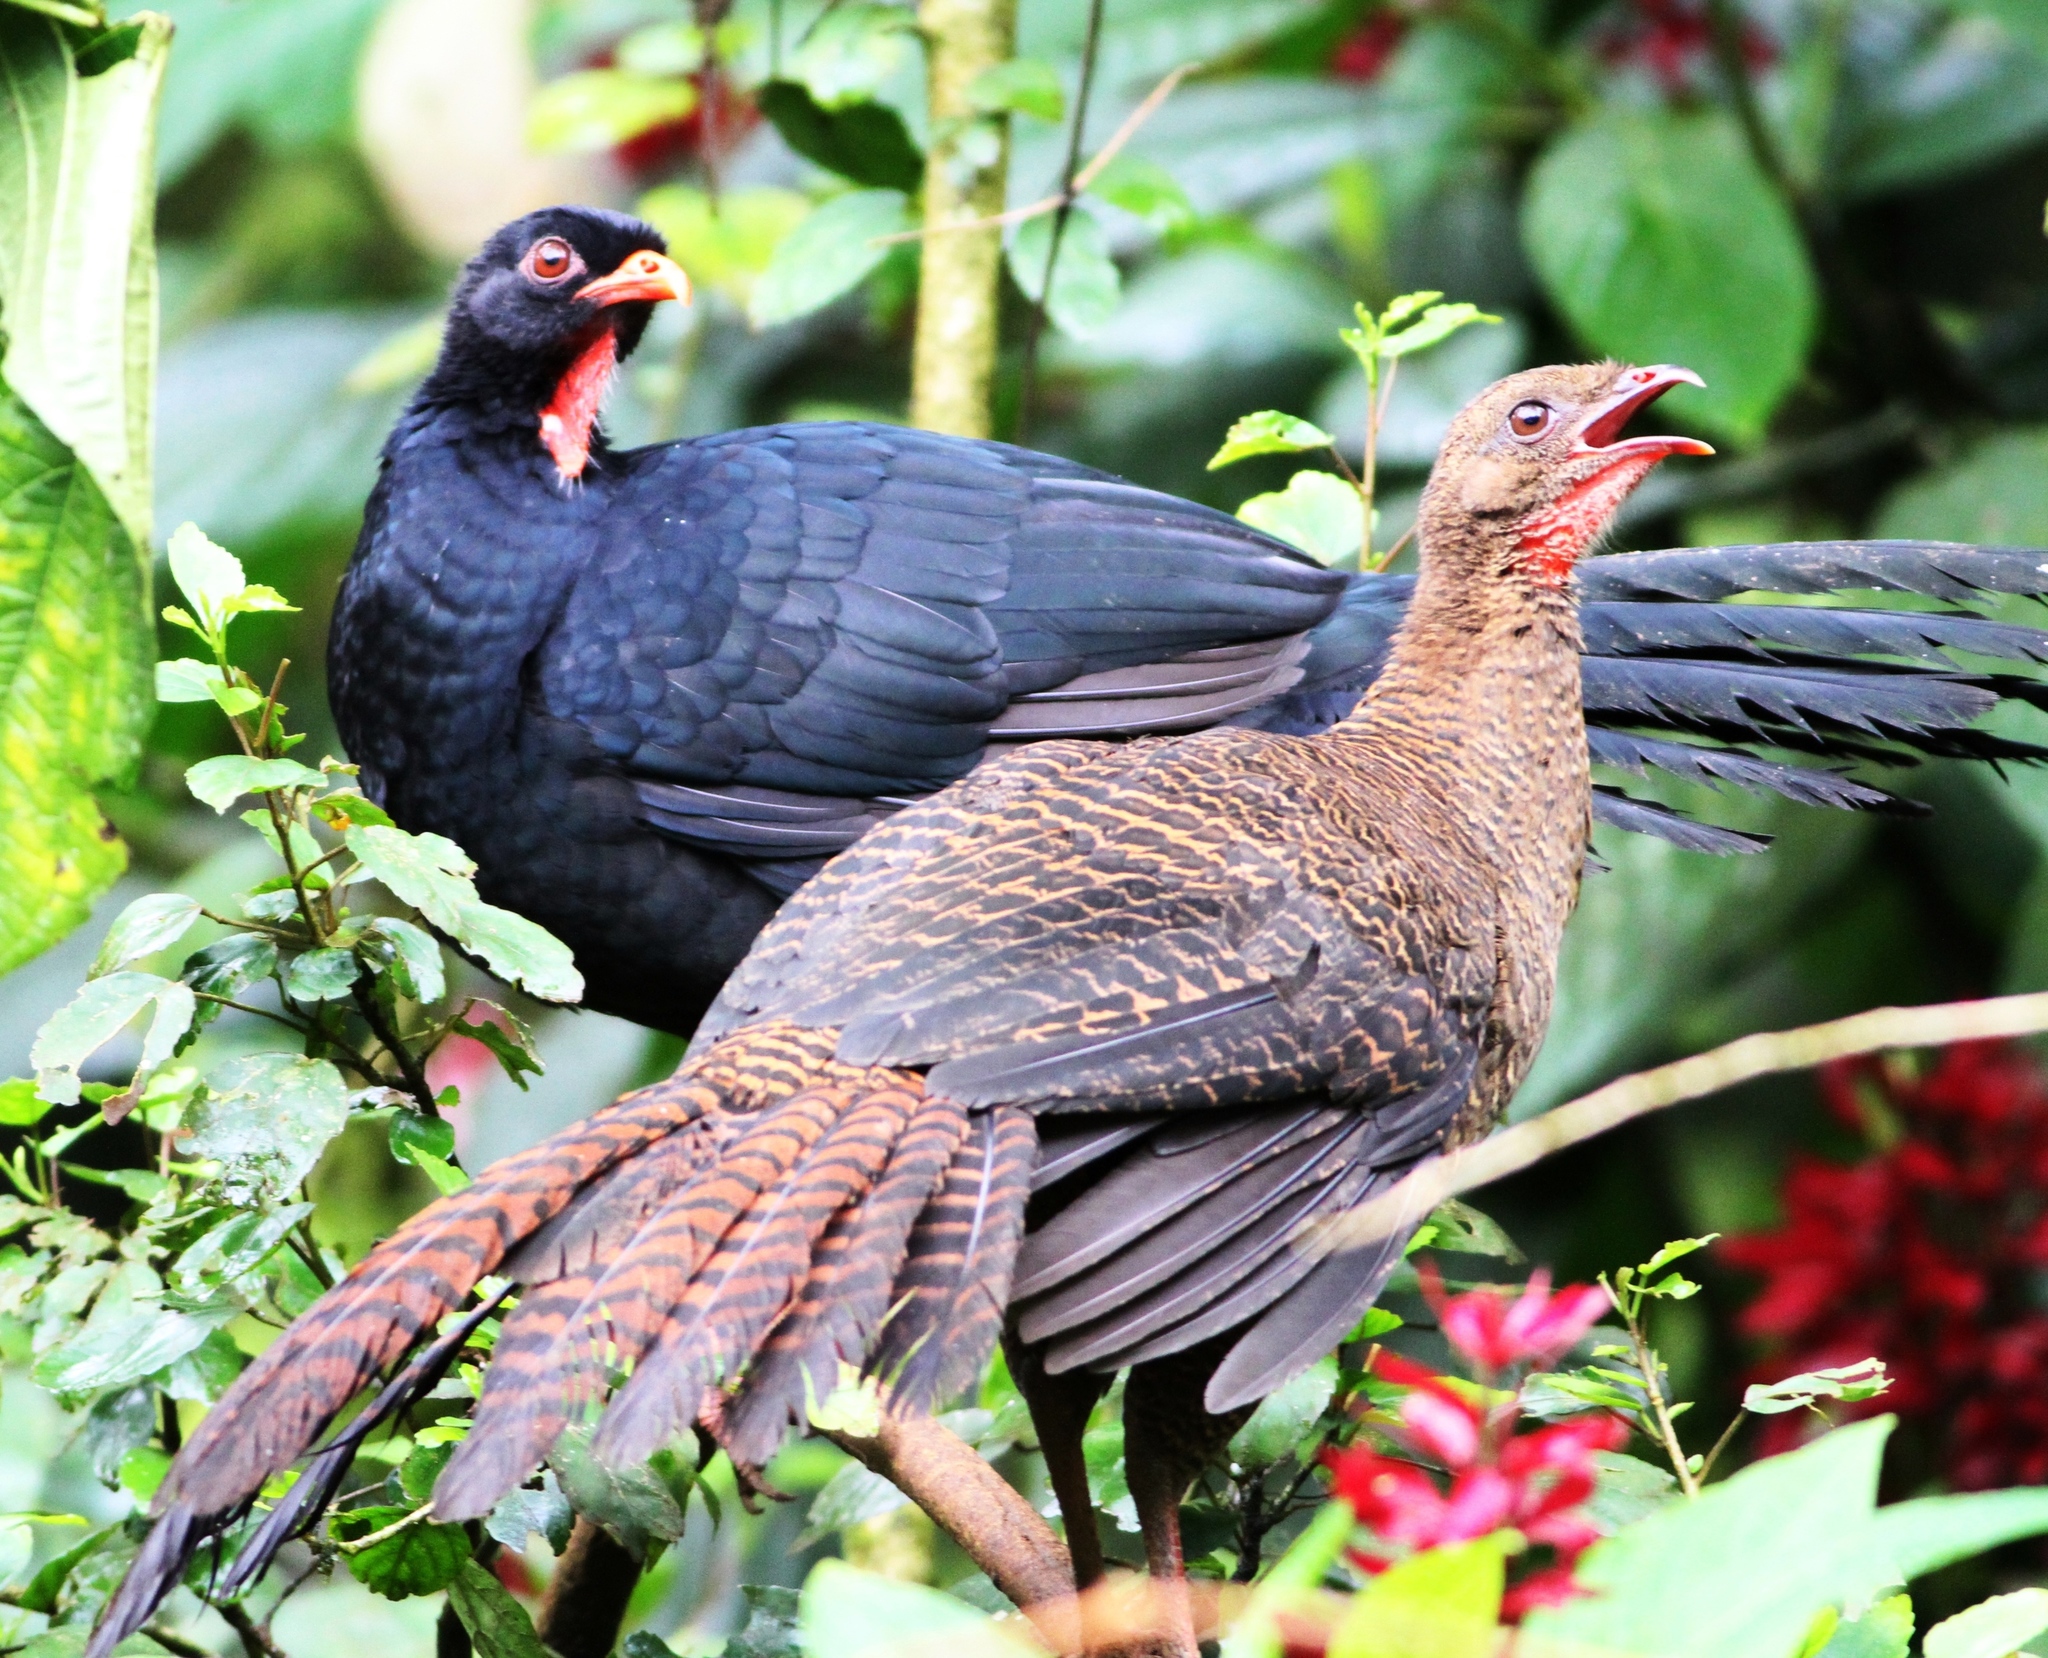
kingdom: Animalia
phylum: Chordata
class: Aves
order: Galliformes
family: Cracidae
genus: Penelopina
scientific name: Penelopina nigra
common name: Highland guan
